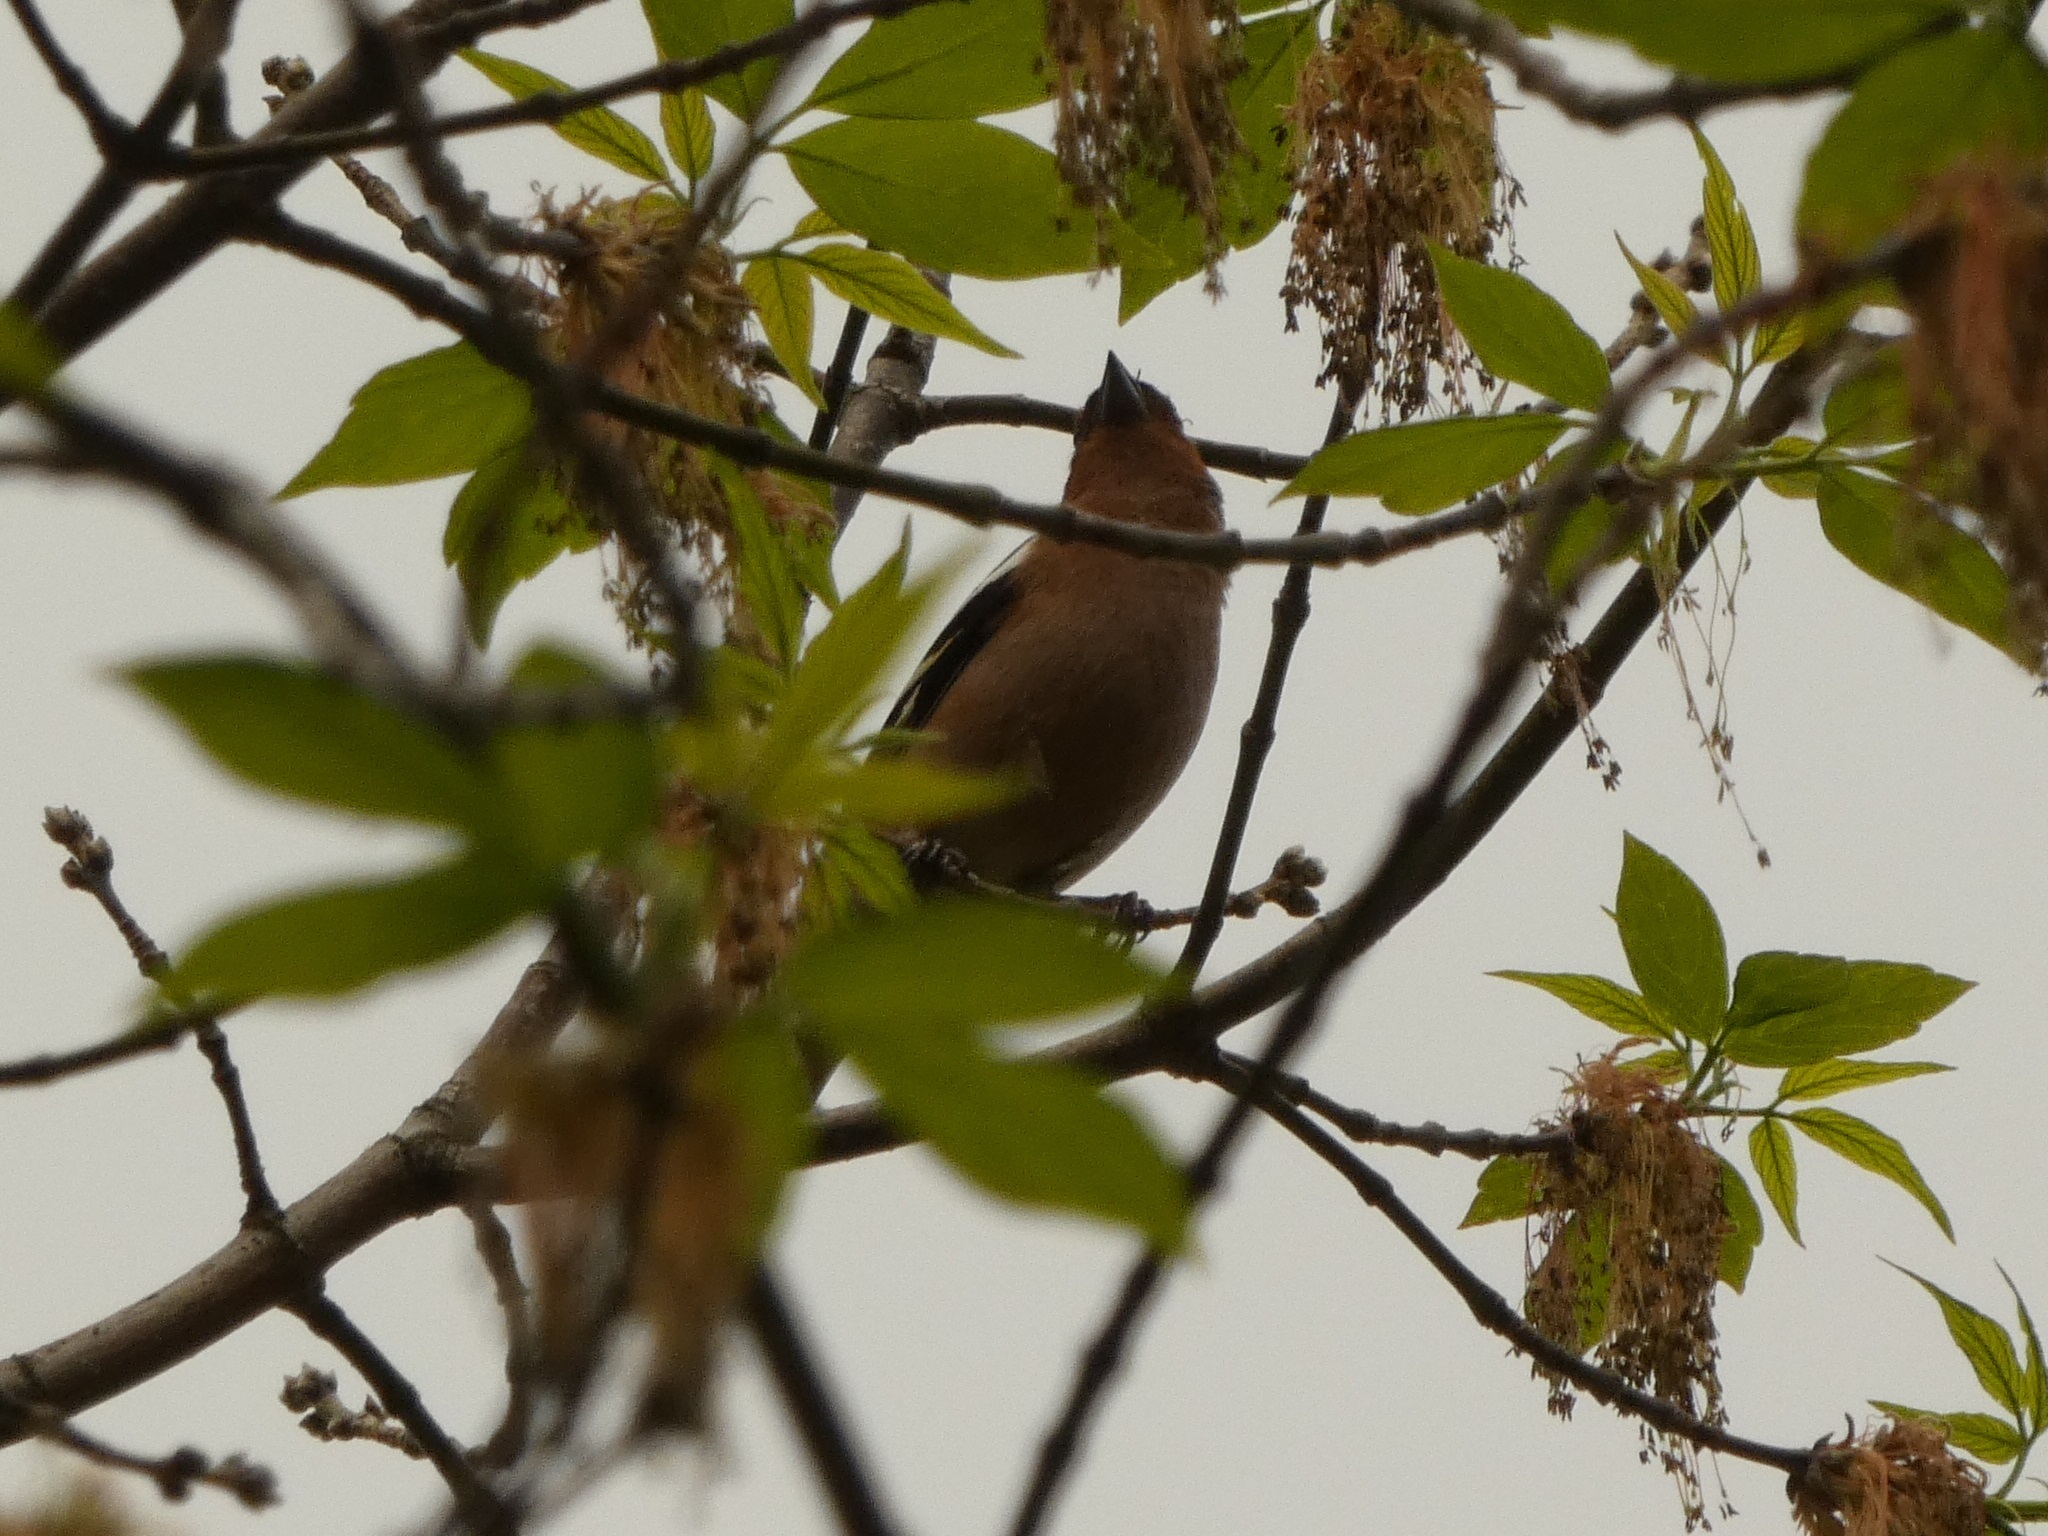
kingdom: Animalia
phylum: Chordata
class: Aves
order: Passeriformes
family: Fringillidae
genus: Fringilla
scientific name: Fringilla coelebs
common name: Common chaffinch
